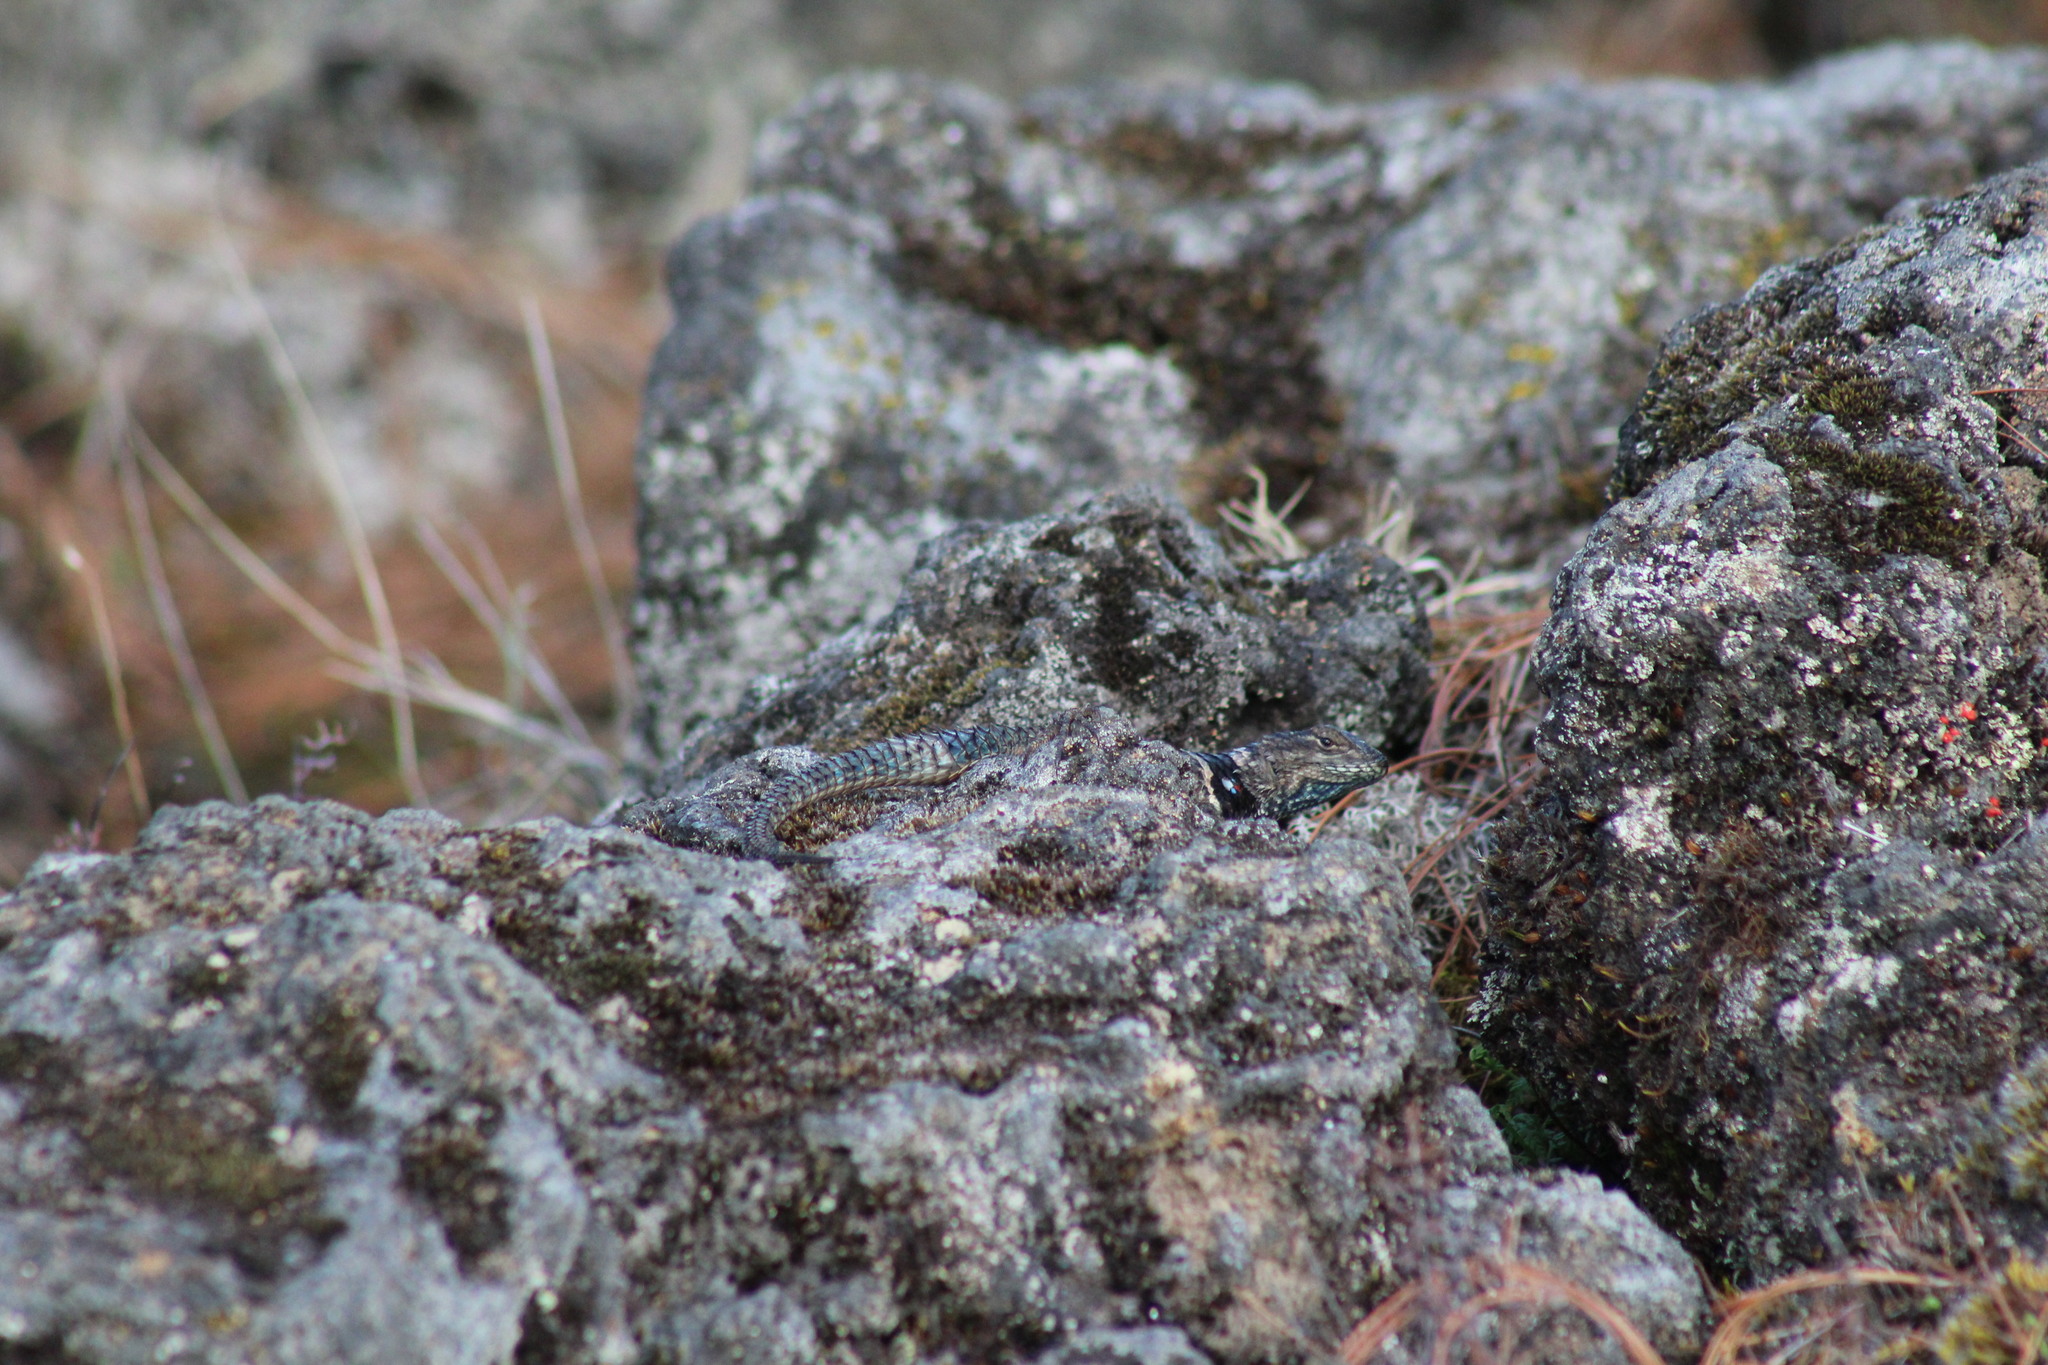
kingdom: Animalia
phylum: Chordata
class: Squamata
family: Phrynosomatidae
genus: Sceloporus
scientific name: Sceloporus torquatus
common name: Central plateau torquate lizard [melanogaster]
